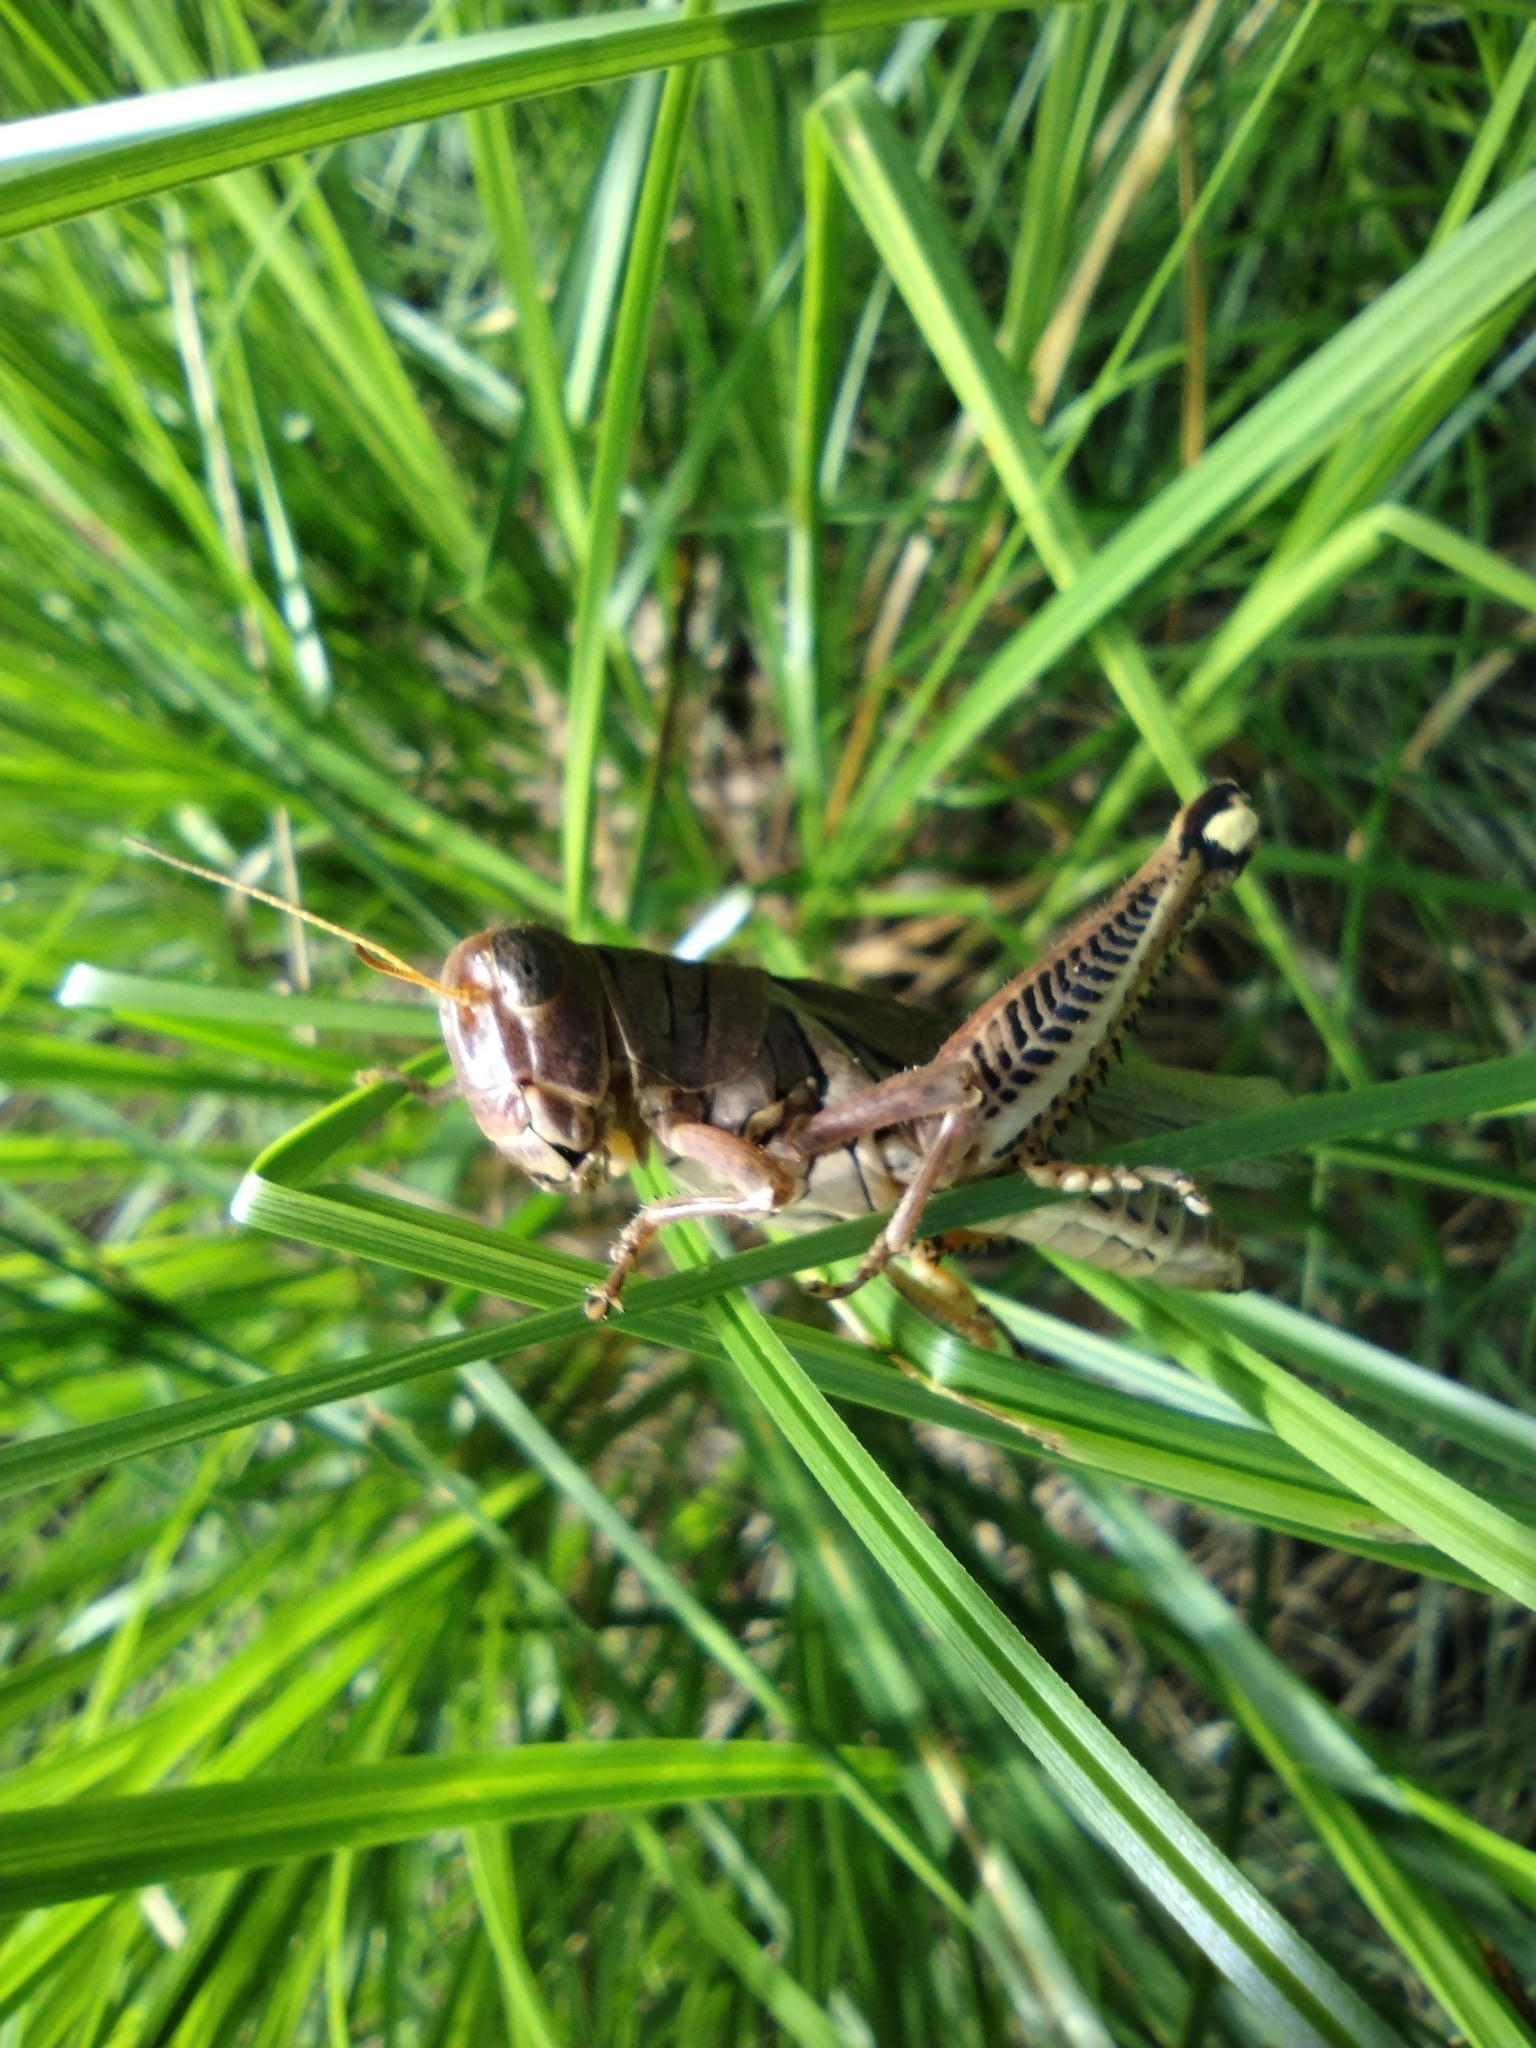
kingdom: Animalia
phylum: Arthropoda
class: Insecta
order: Orthoptera
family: Acrididae
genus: Melanoplus
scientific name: Melanoplus differentialis
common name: Differential grasshopper
